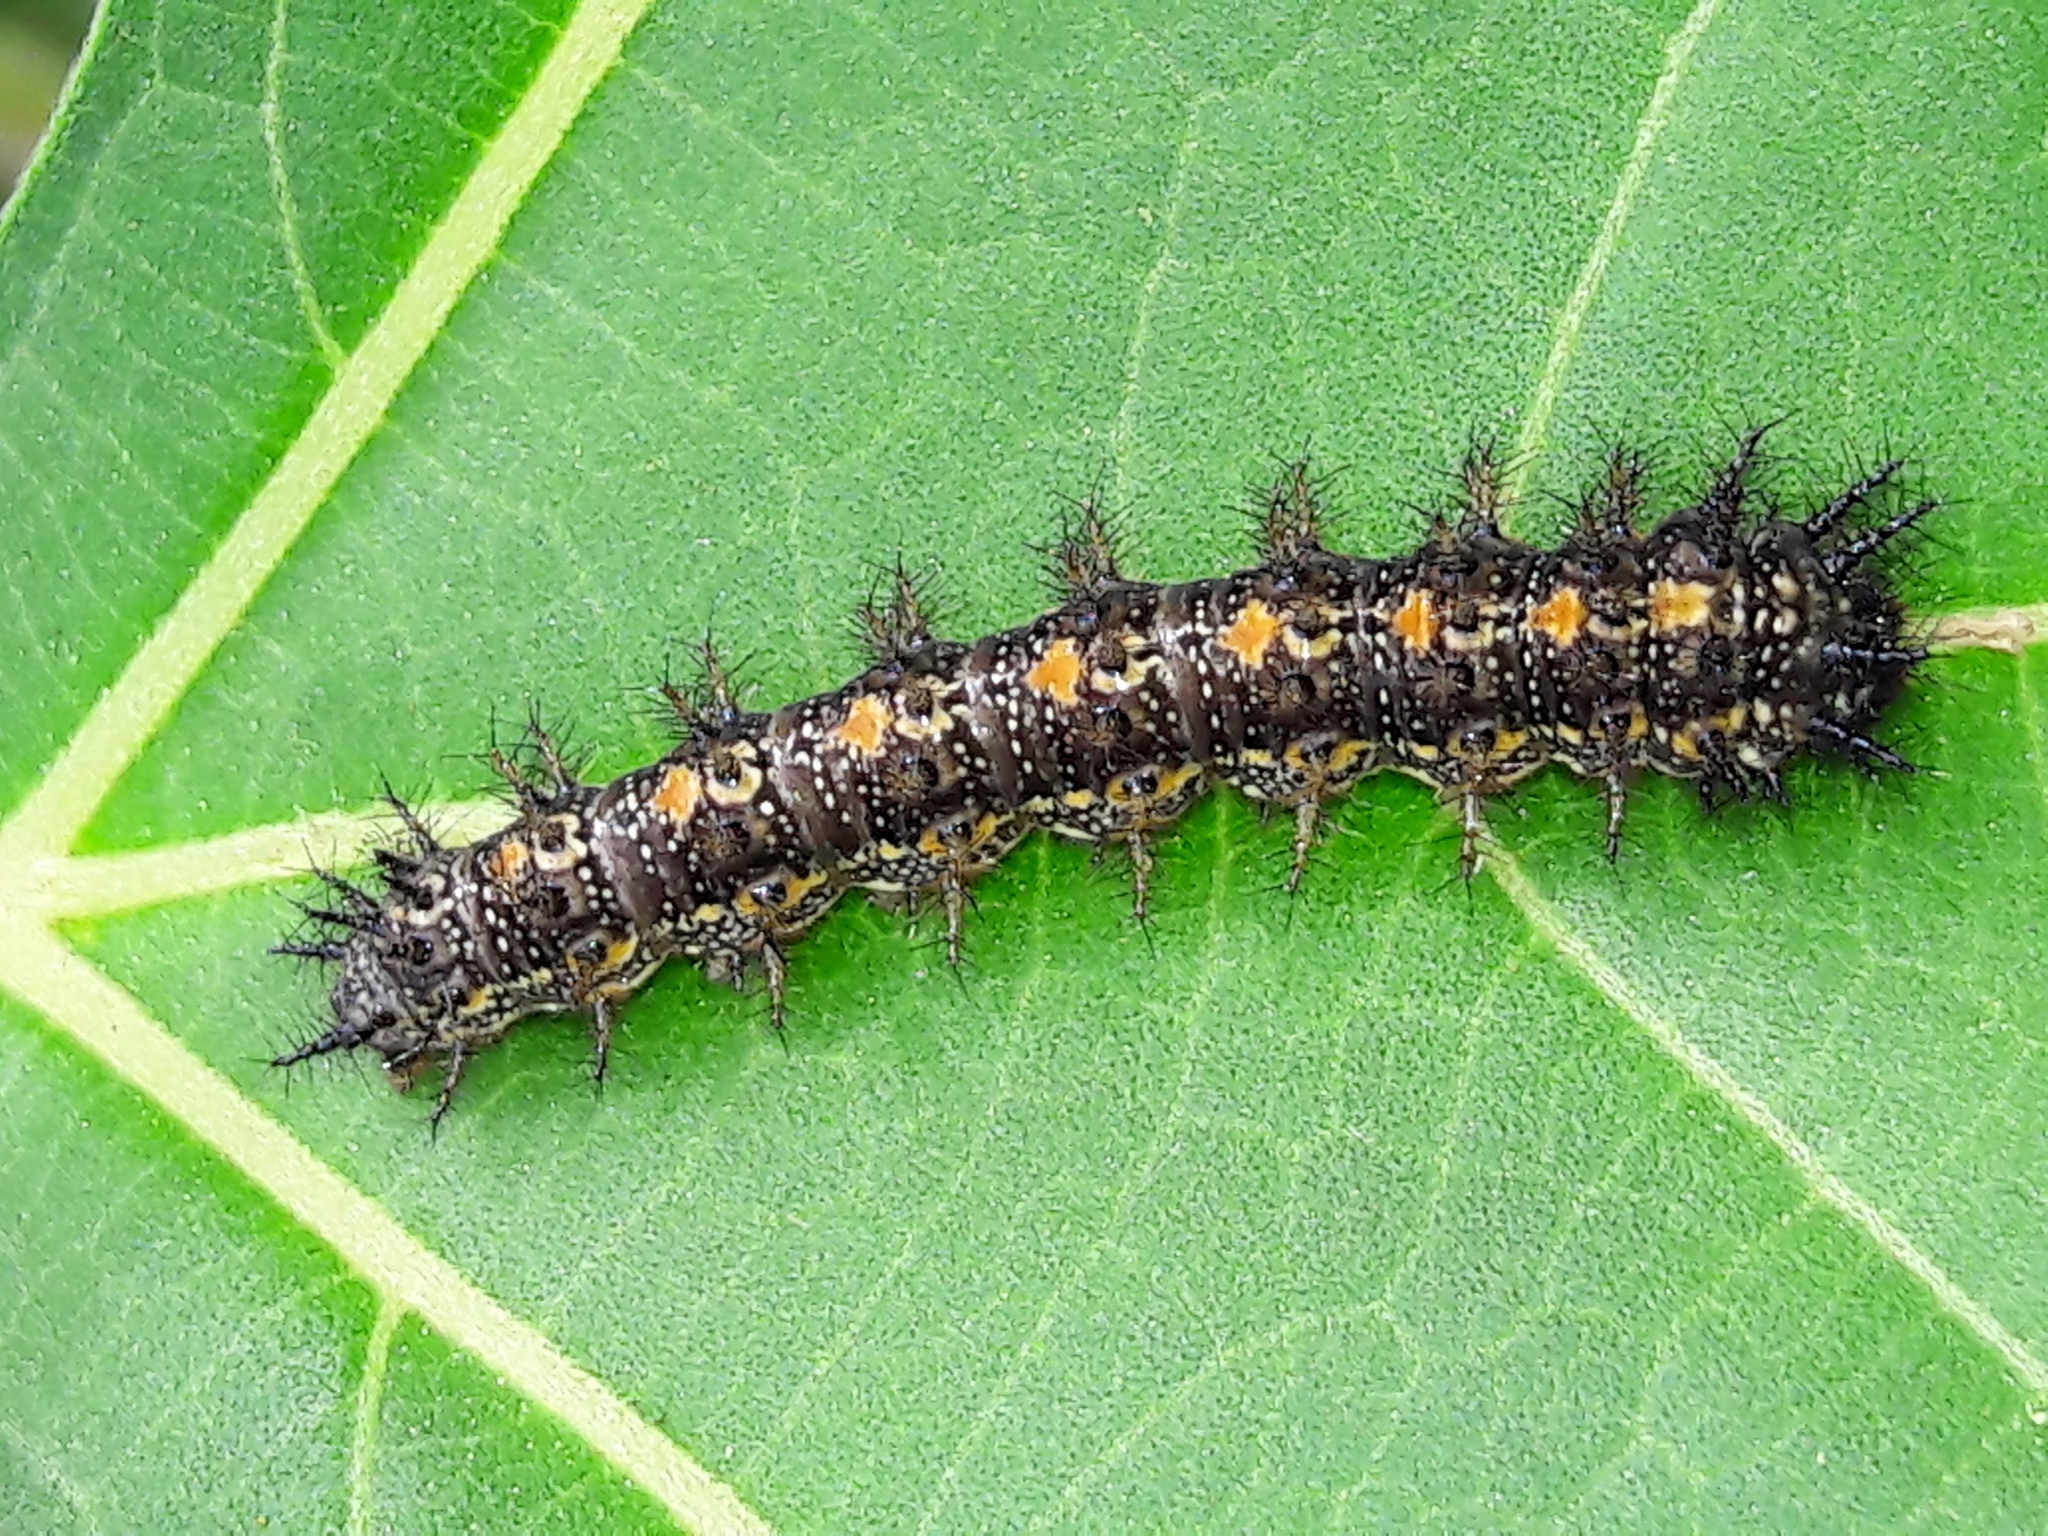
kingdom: Animalia
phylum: Arthropoda
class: Insecta
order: Lepidoptera
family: Nymphalidae
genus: Chlosyne
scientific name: Chlosyne lacinia
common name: Bordered patch
